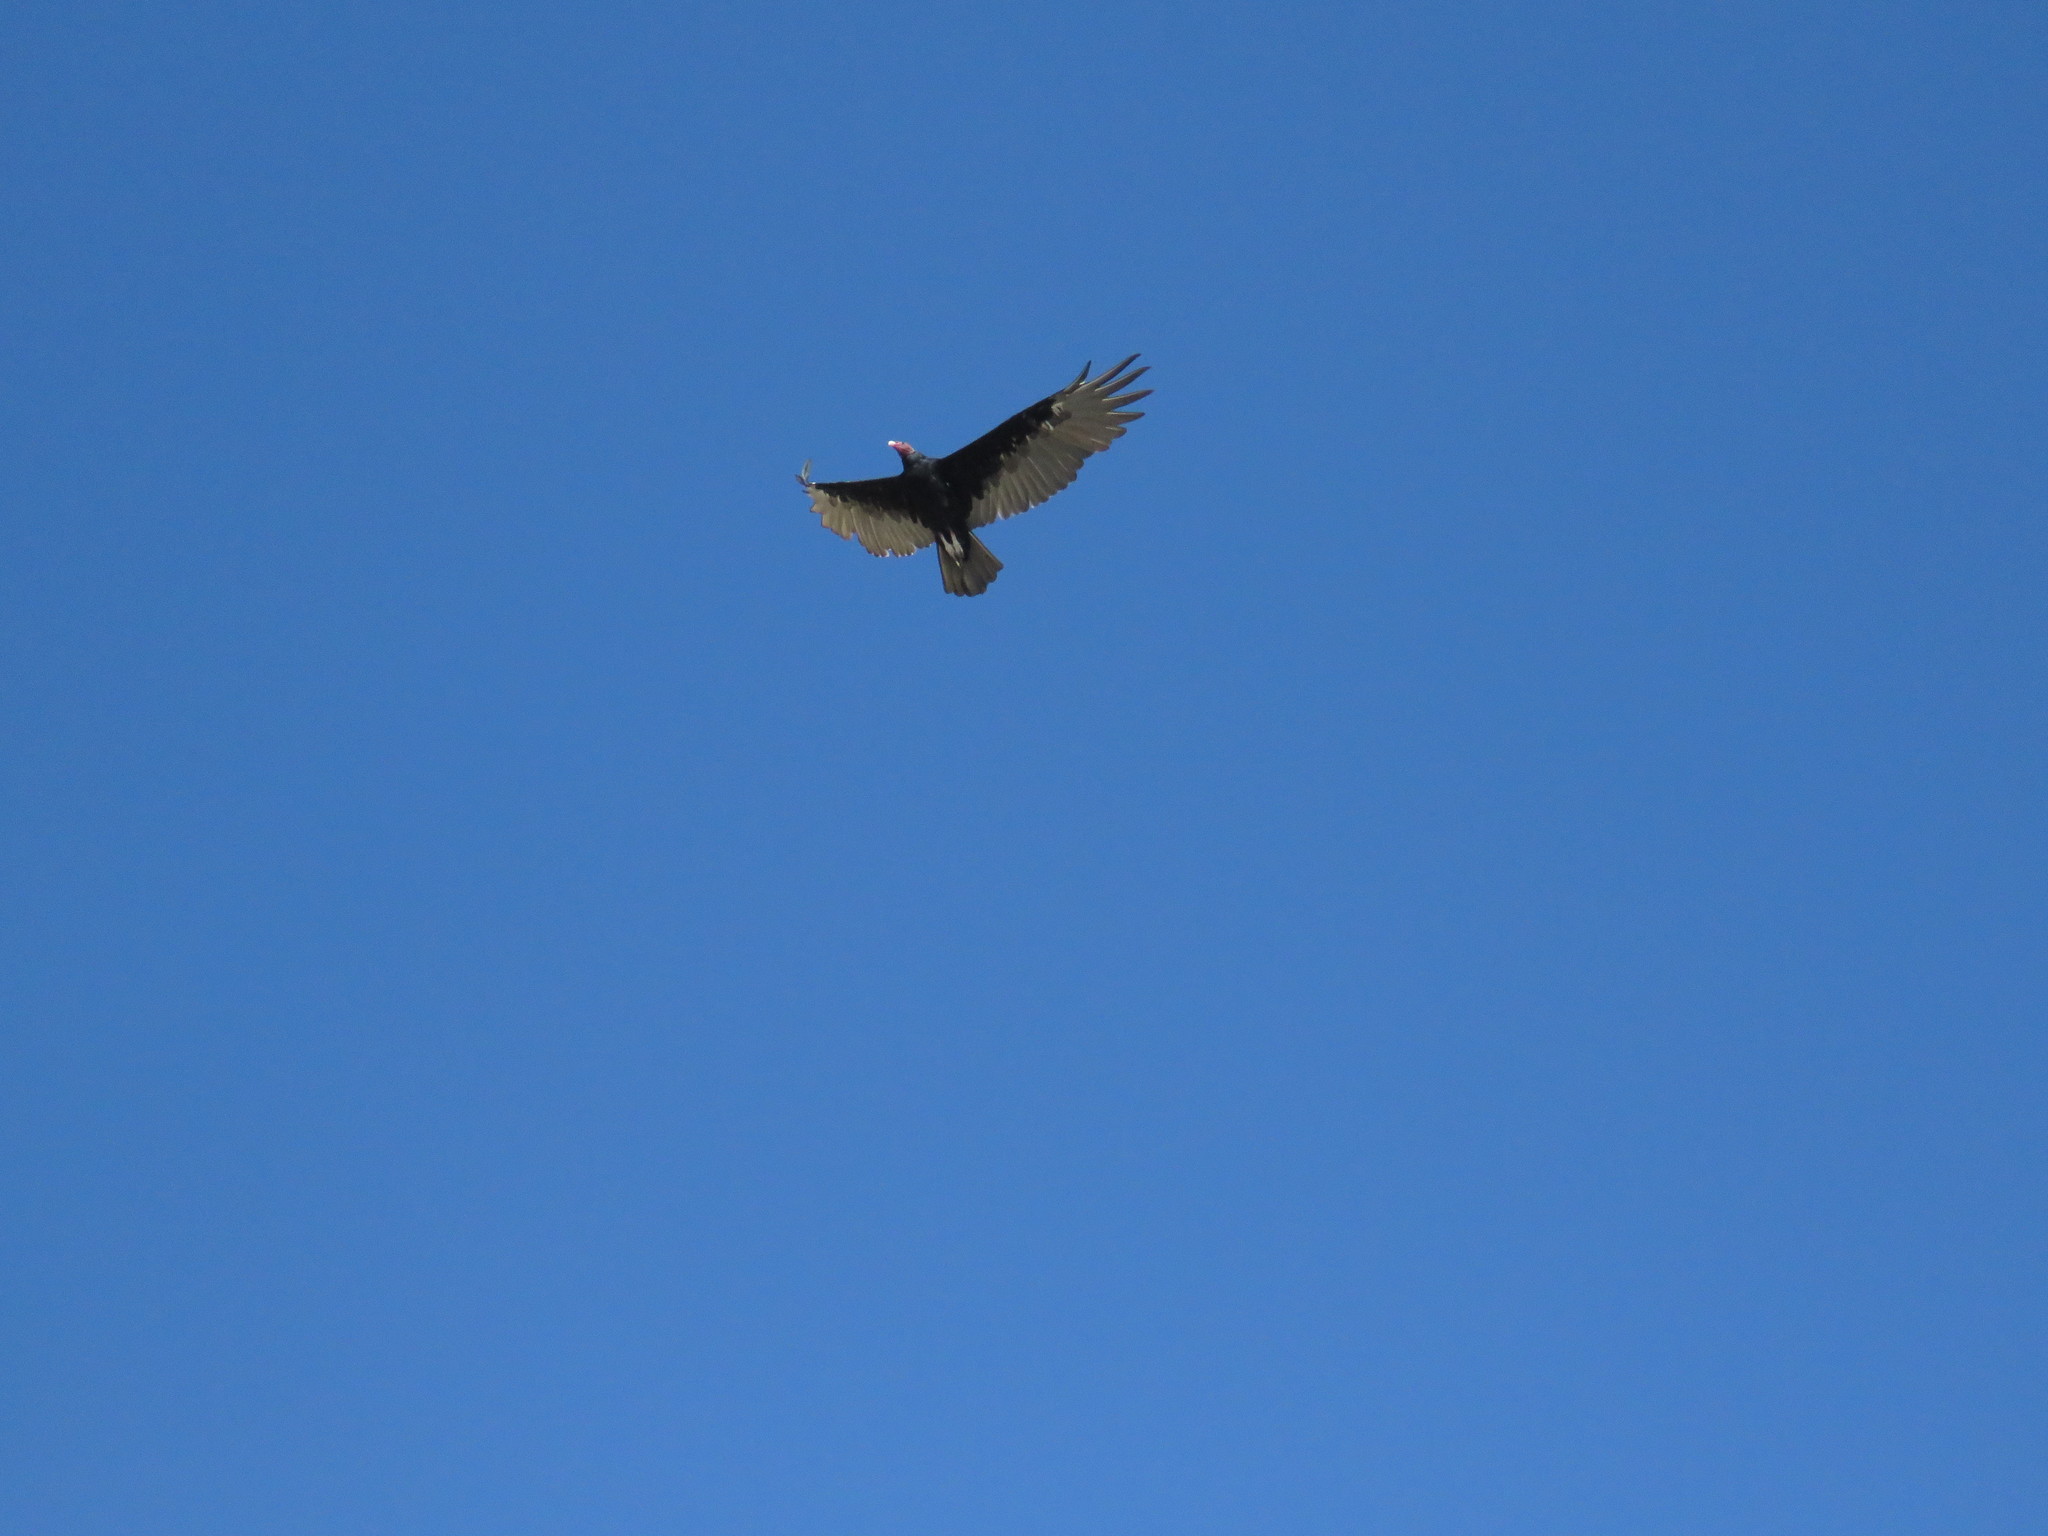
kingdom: Animalia
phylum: Chordata
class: Aves
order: Accipitriformes
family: Cathartidae
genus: Cathartes
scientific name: Cathartes aura
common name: Turkey vulture
